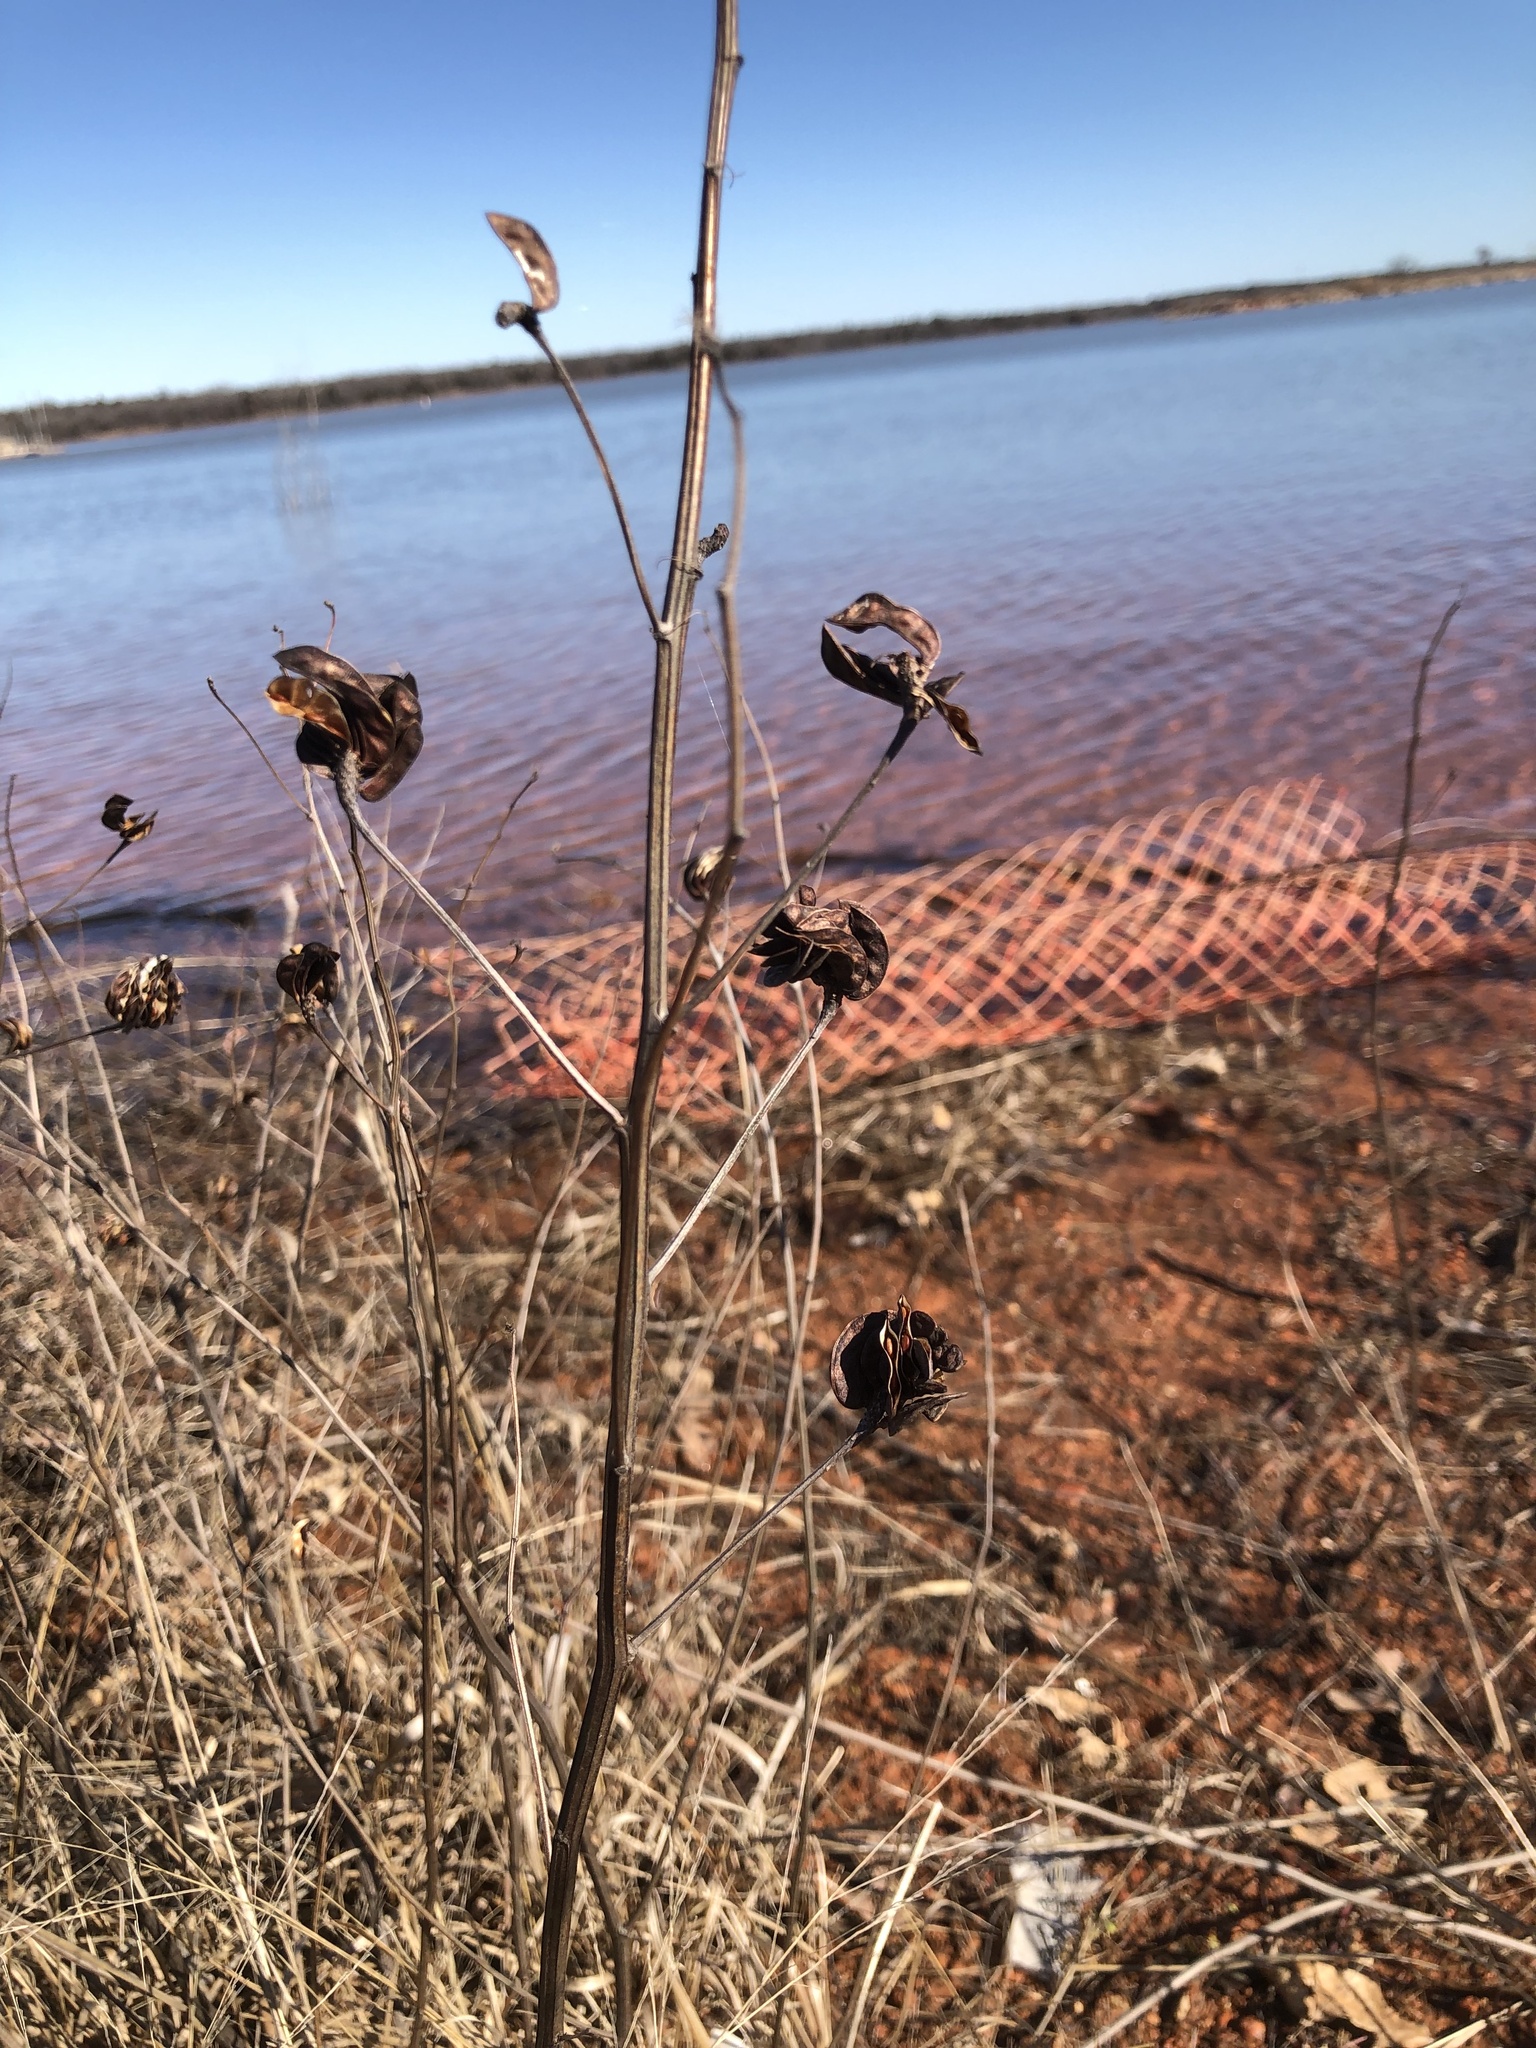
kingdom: Plantae
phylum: Tracheophyta
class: Magnoliopsida
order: Fabales
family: Fabaceae
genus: Desmanthus
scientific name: Desmanthus illinoensis
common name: Illinois bundle-flower
